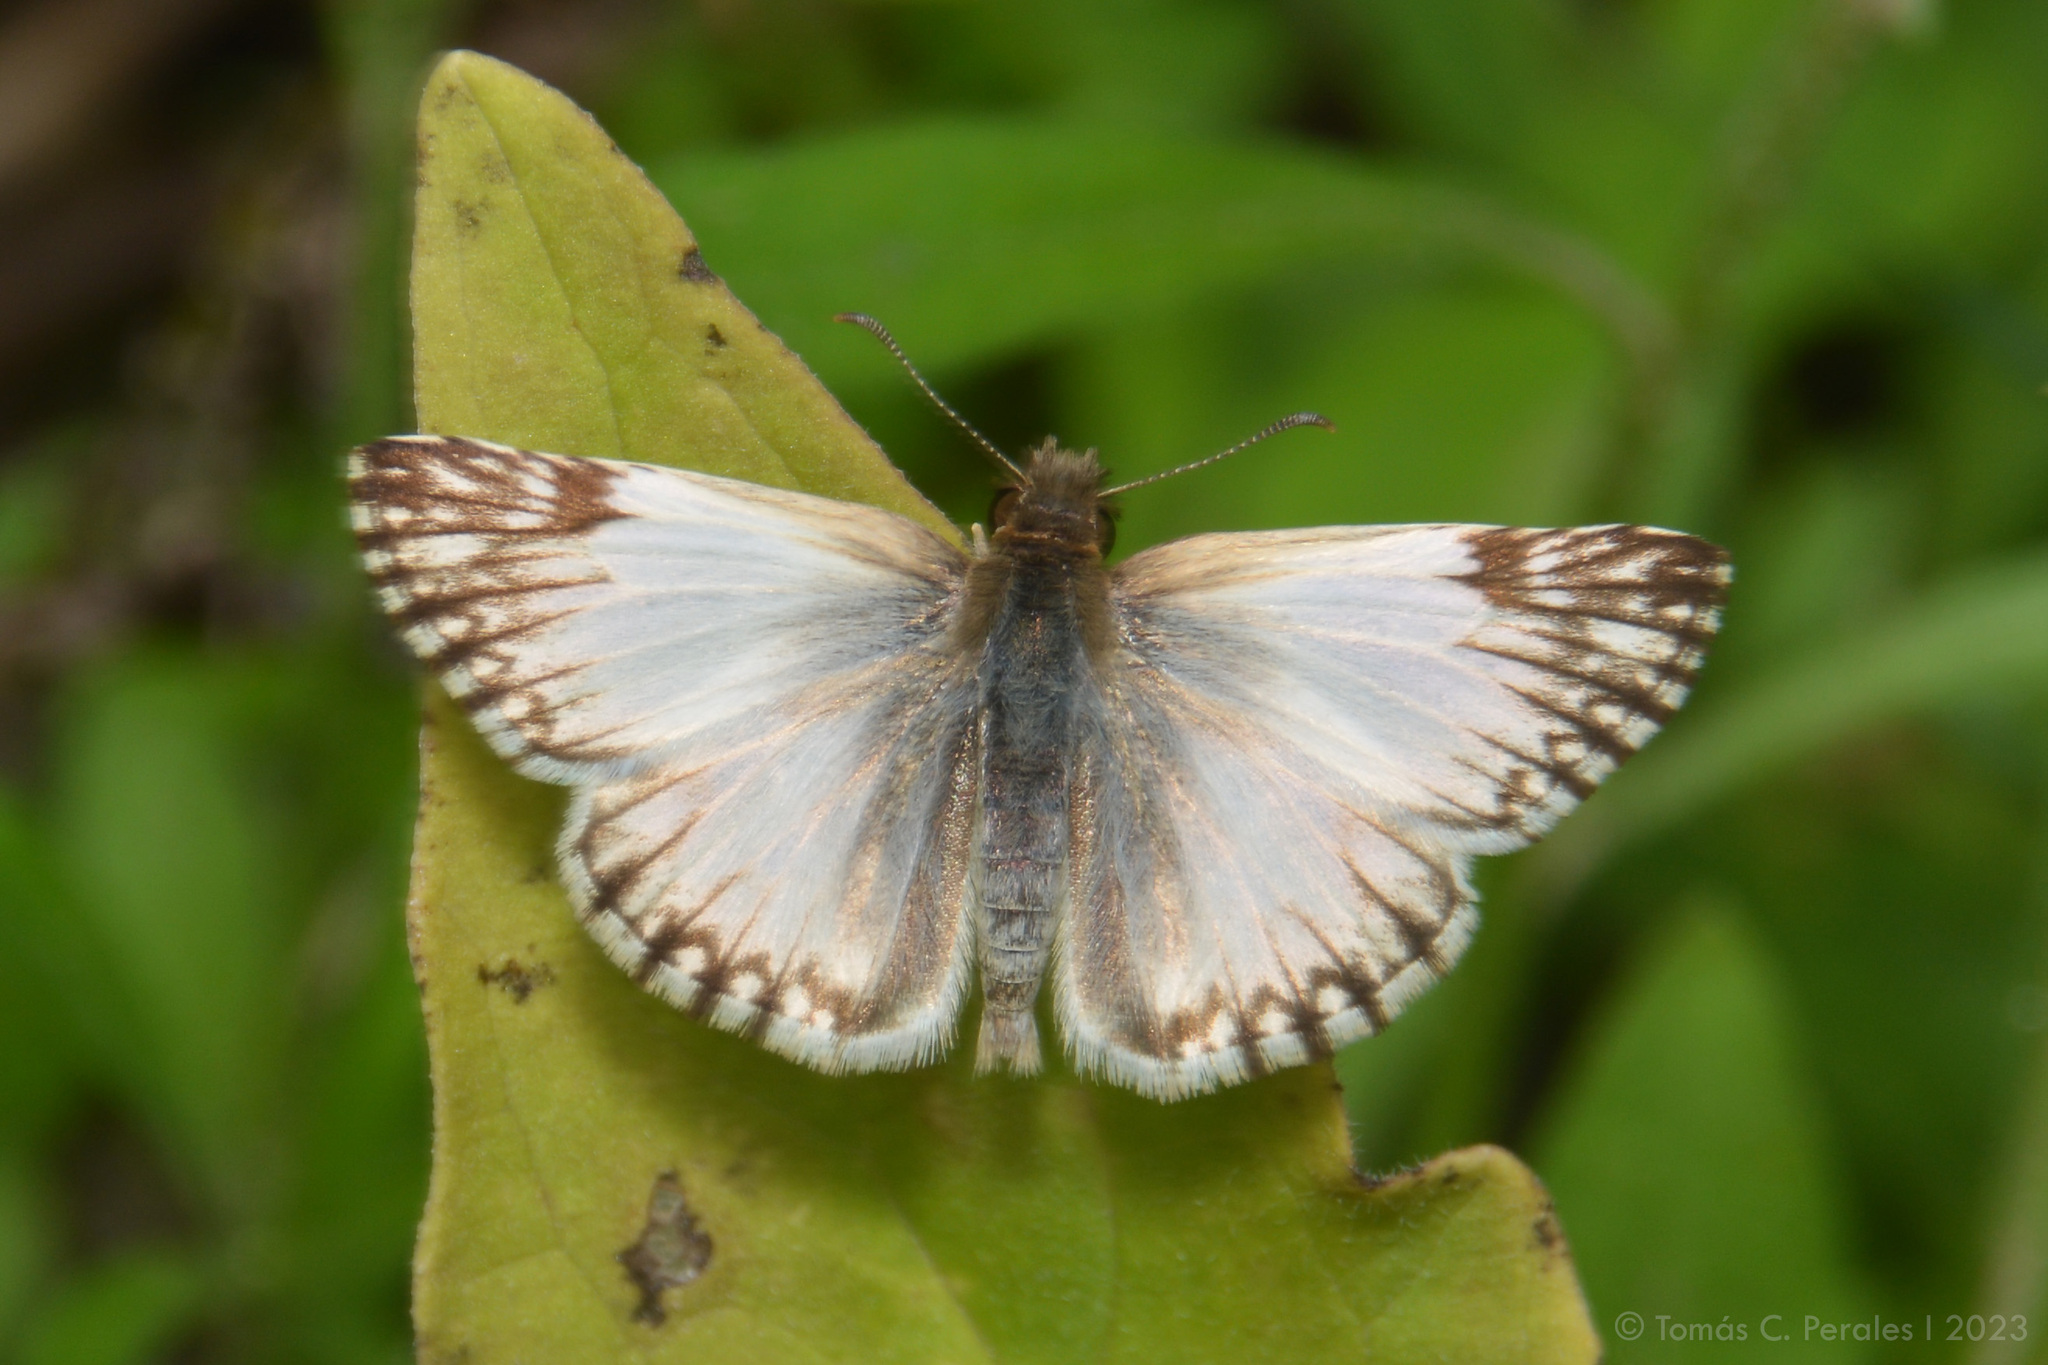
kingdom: Animalia
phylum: Arthropoda
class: Insecta
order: Lepidoptera
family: Hesperiidae
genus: Heliopetes
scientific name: Heliopetes omrina
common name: Stained white-skipper
